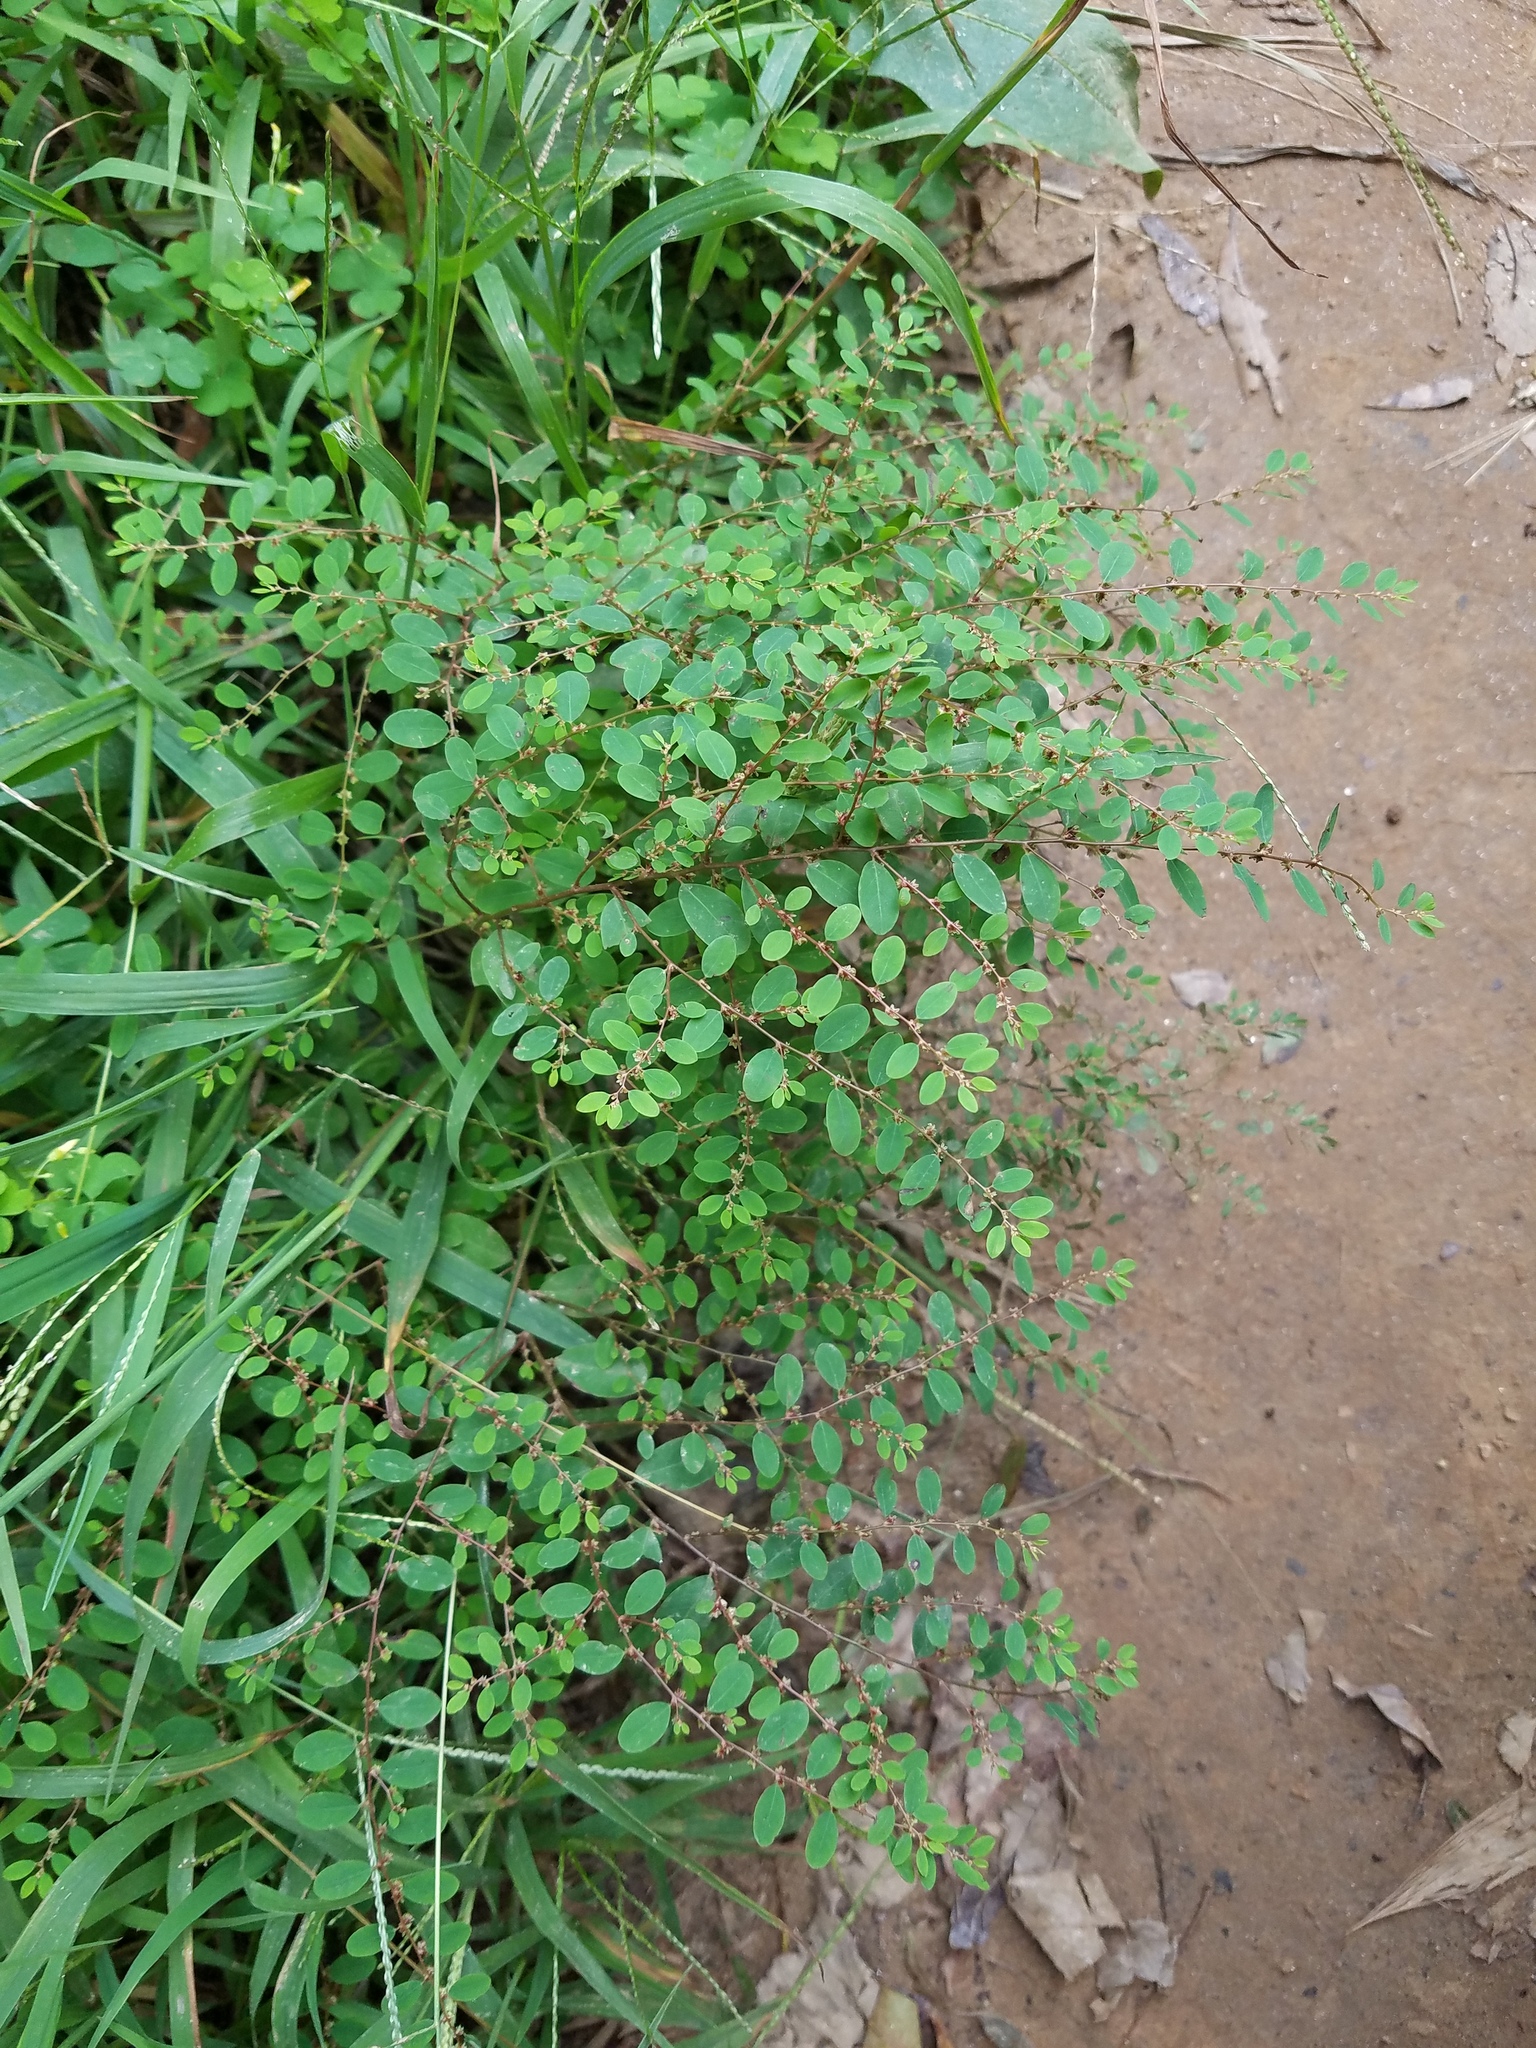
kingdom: Plantae
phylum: Tracheophyta
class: Magnoliopsida
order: Malpighiales
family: Phyllanthaceae
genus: Phyllanthus
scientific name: Phyllanthus caroliniensis
